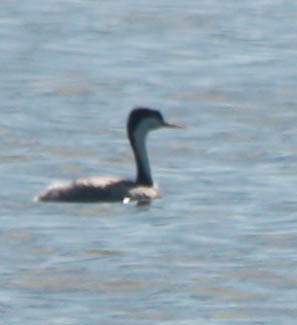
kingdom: Animalia
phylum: Chordata
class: Aves
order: Podicipediformes
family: Podicipedidae
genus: Aechmophorus
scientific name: Aechmophorus occidentalis
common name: Western grebe
